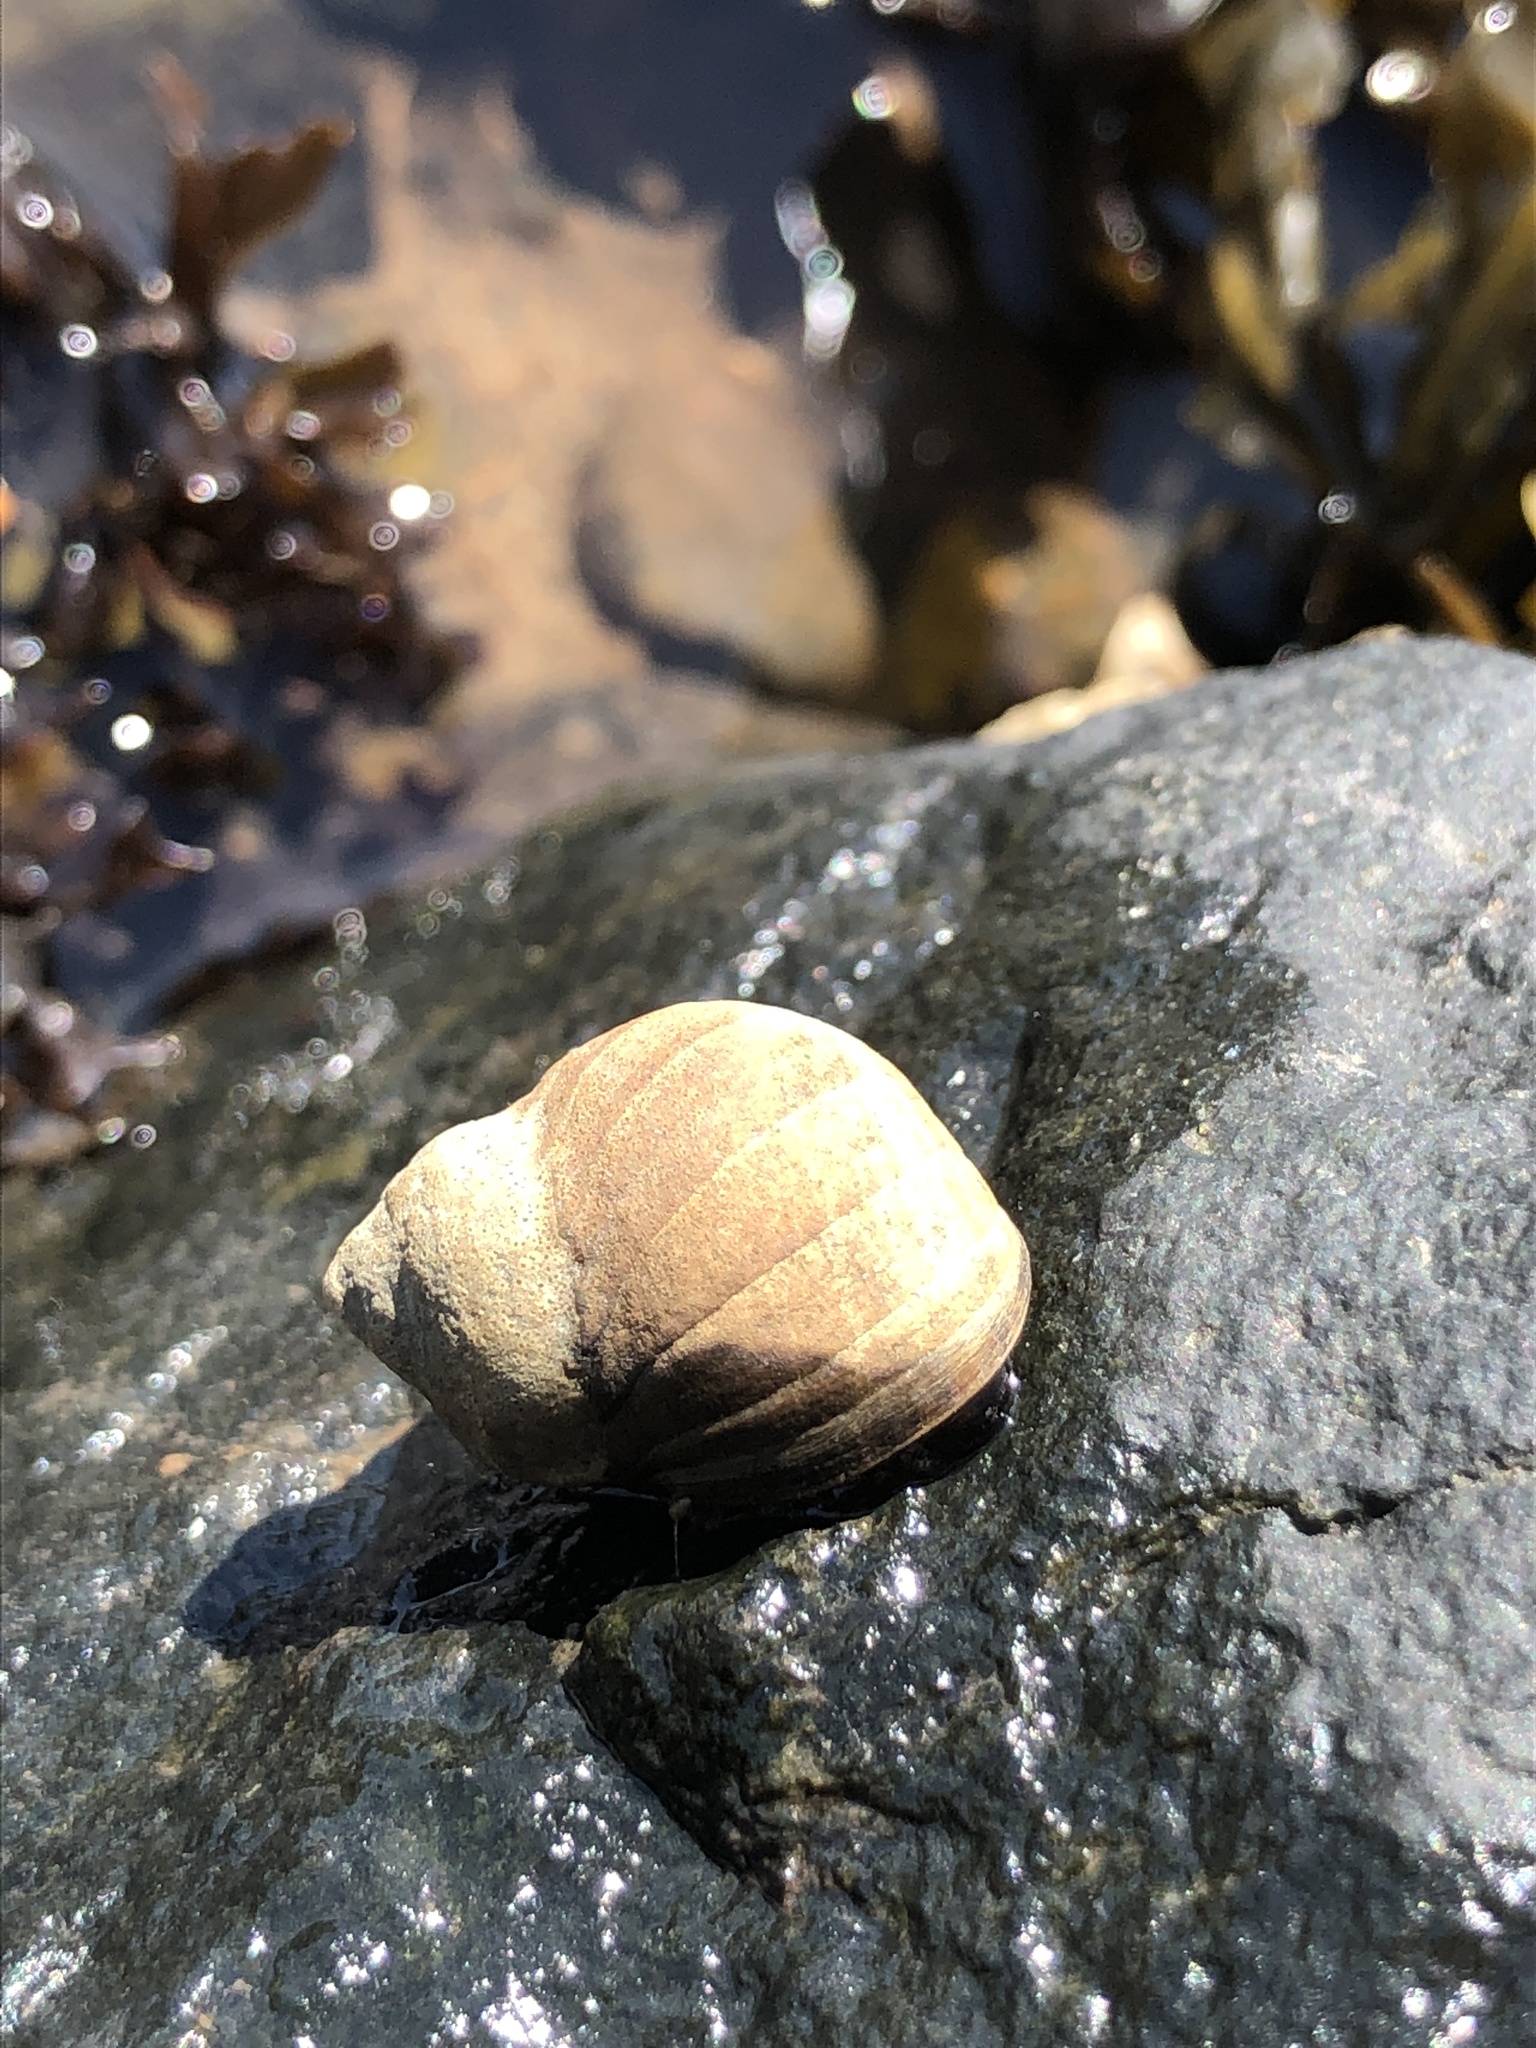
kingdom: Animalia
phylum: Mollusca
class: Gastropoda
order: Littorinimorpha
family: Littorinidae
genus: Littorina
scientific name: Littorina littorea
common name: Common periwinkle
